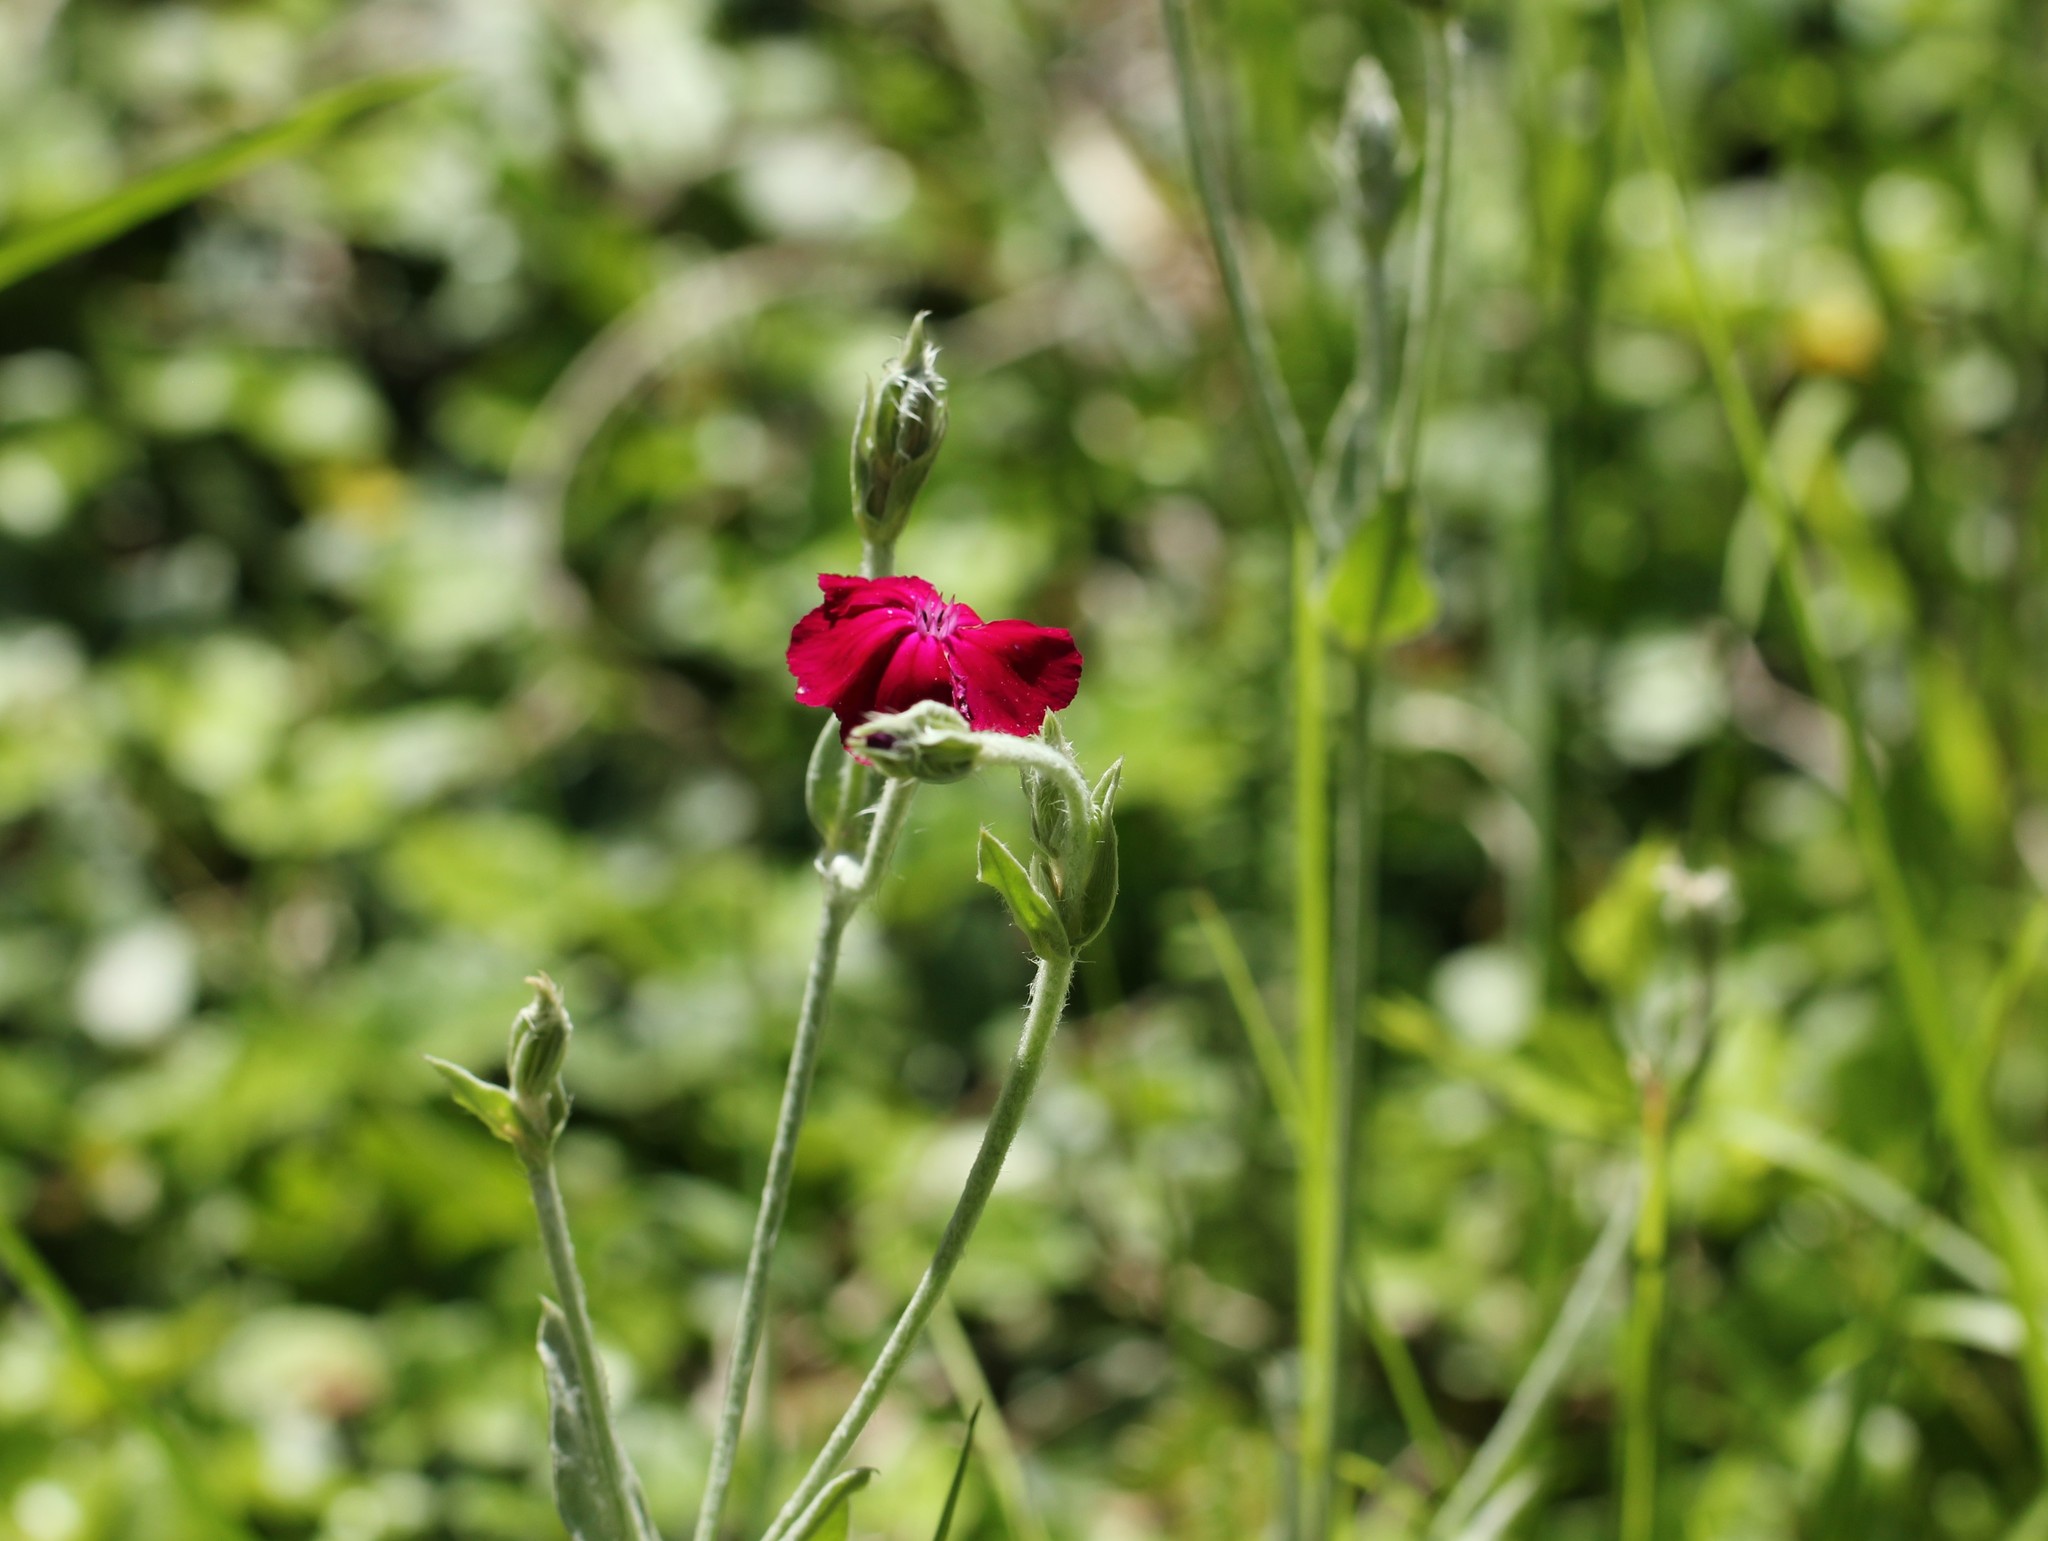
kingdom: Plantae
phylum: Tracheophyta
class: Magnoliopsida
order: Caryophyllales
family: Caryophyllaceae
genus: Silene
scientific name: Silene coronaria
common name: Rose campion
